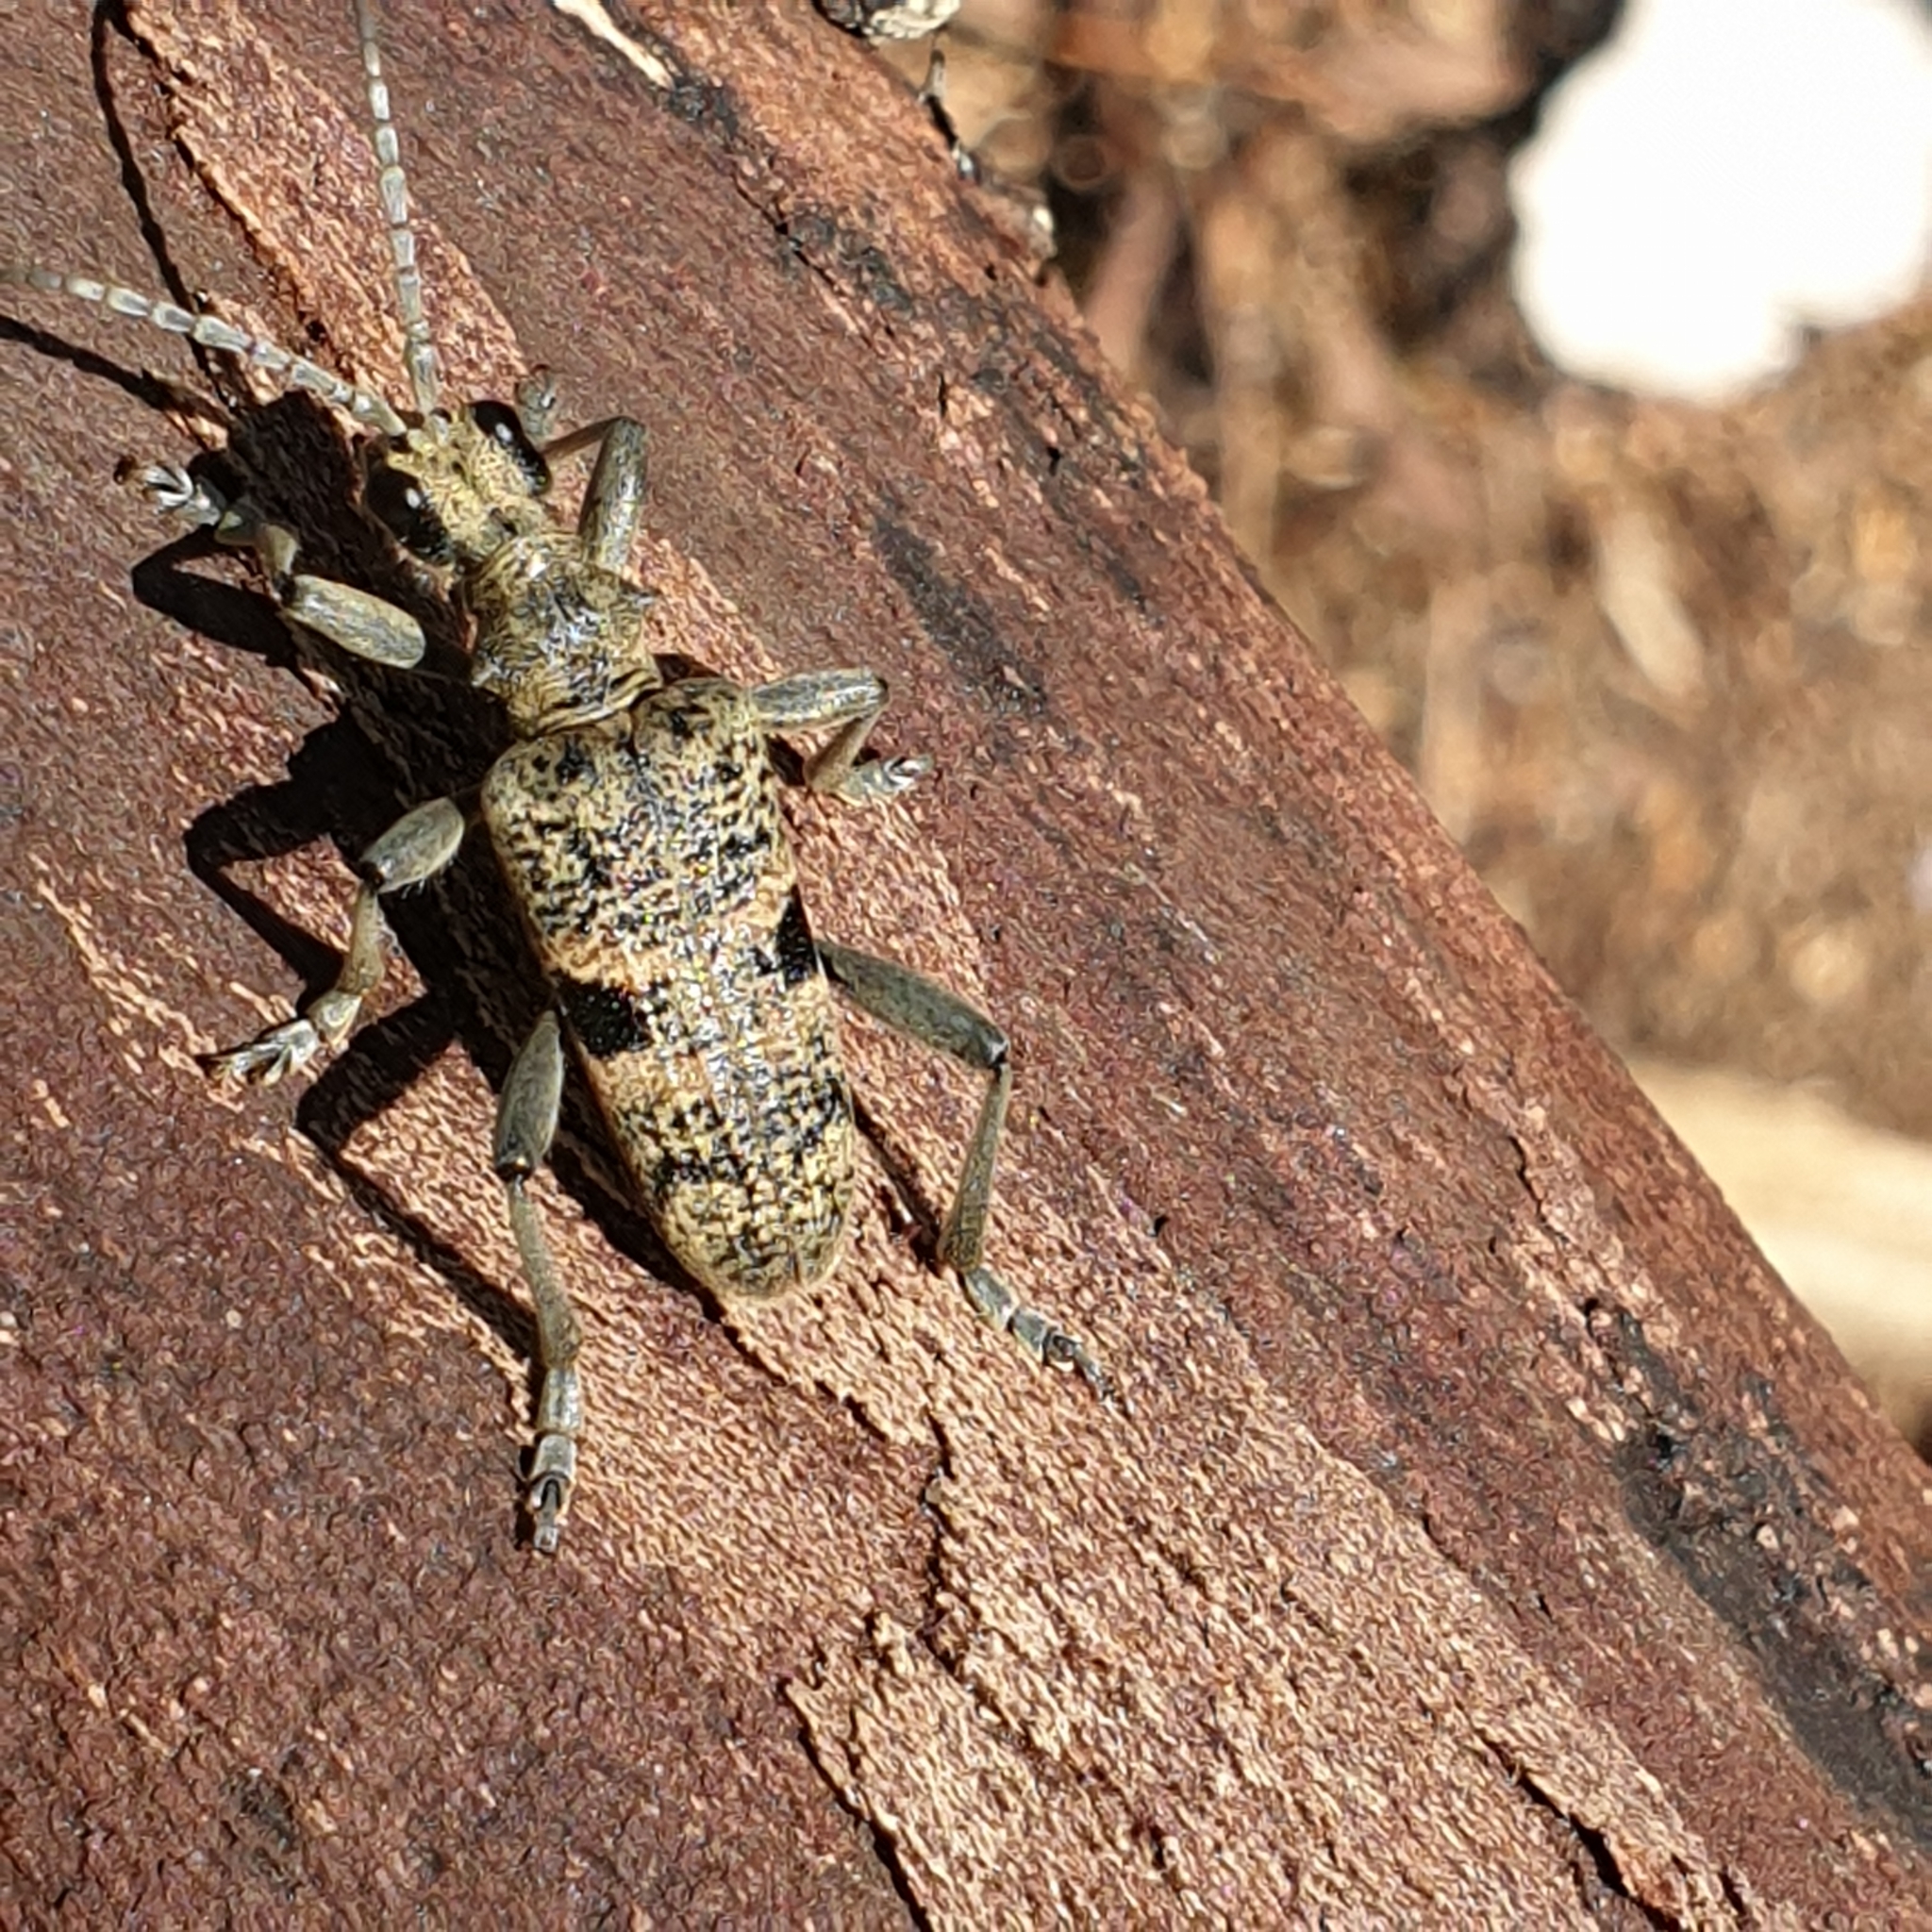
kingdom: Animalia
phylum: Arthropoda
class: Insecta
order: Coleoptera
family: Cerambycidae
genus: Rhagium
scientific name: Rhagium mordax
